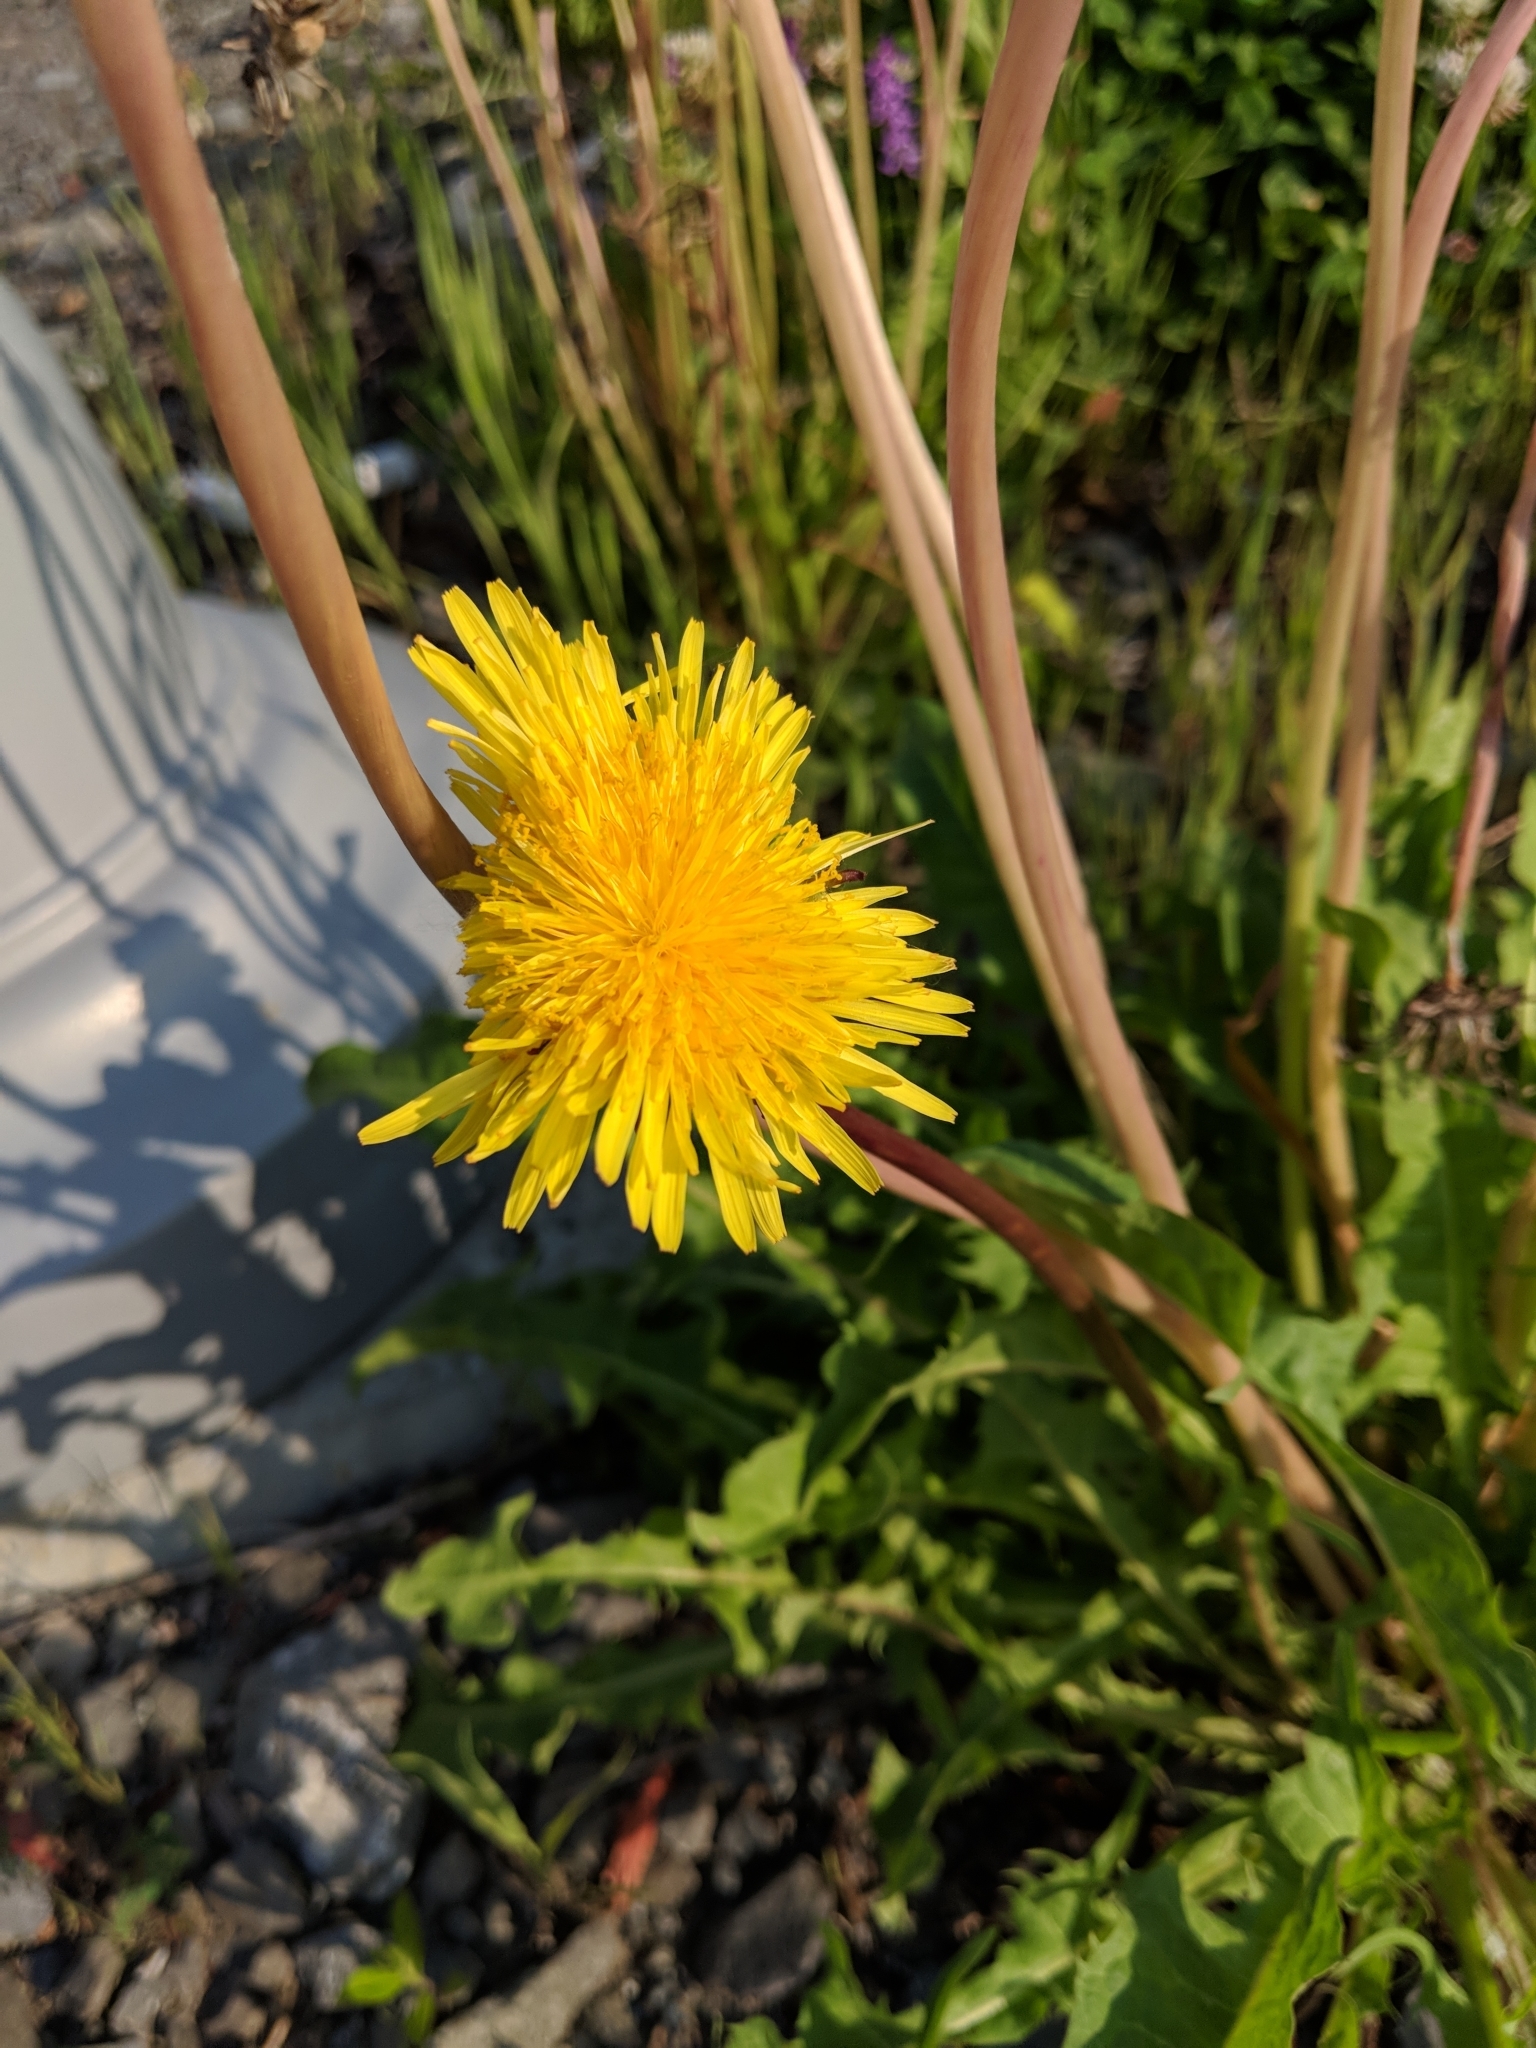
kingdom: Plantae
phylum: Tracheophyta
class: Magnoliopsida
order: Asterales
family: Asteraceae
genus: Taraxacum
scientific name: Taraxacum officinale
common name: Common dandelion
